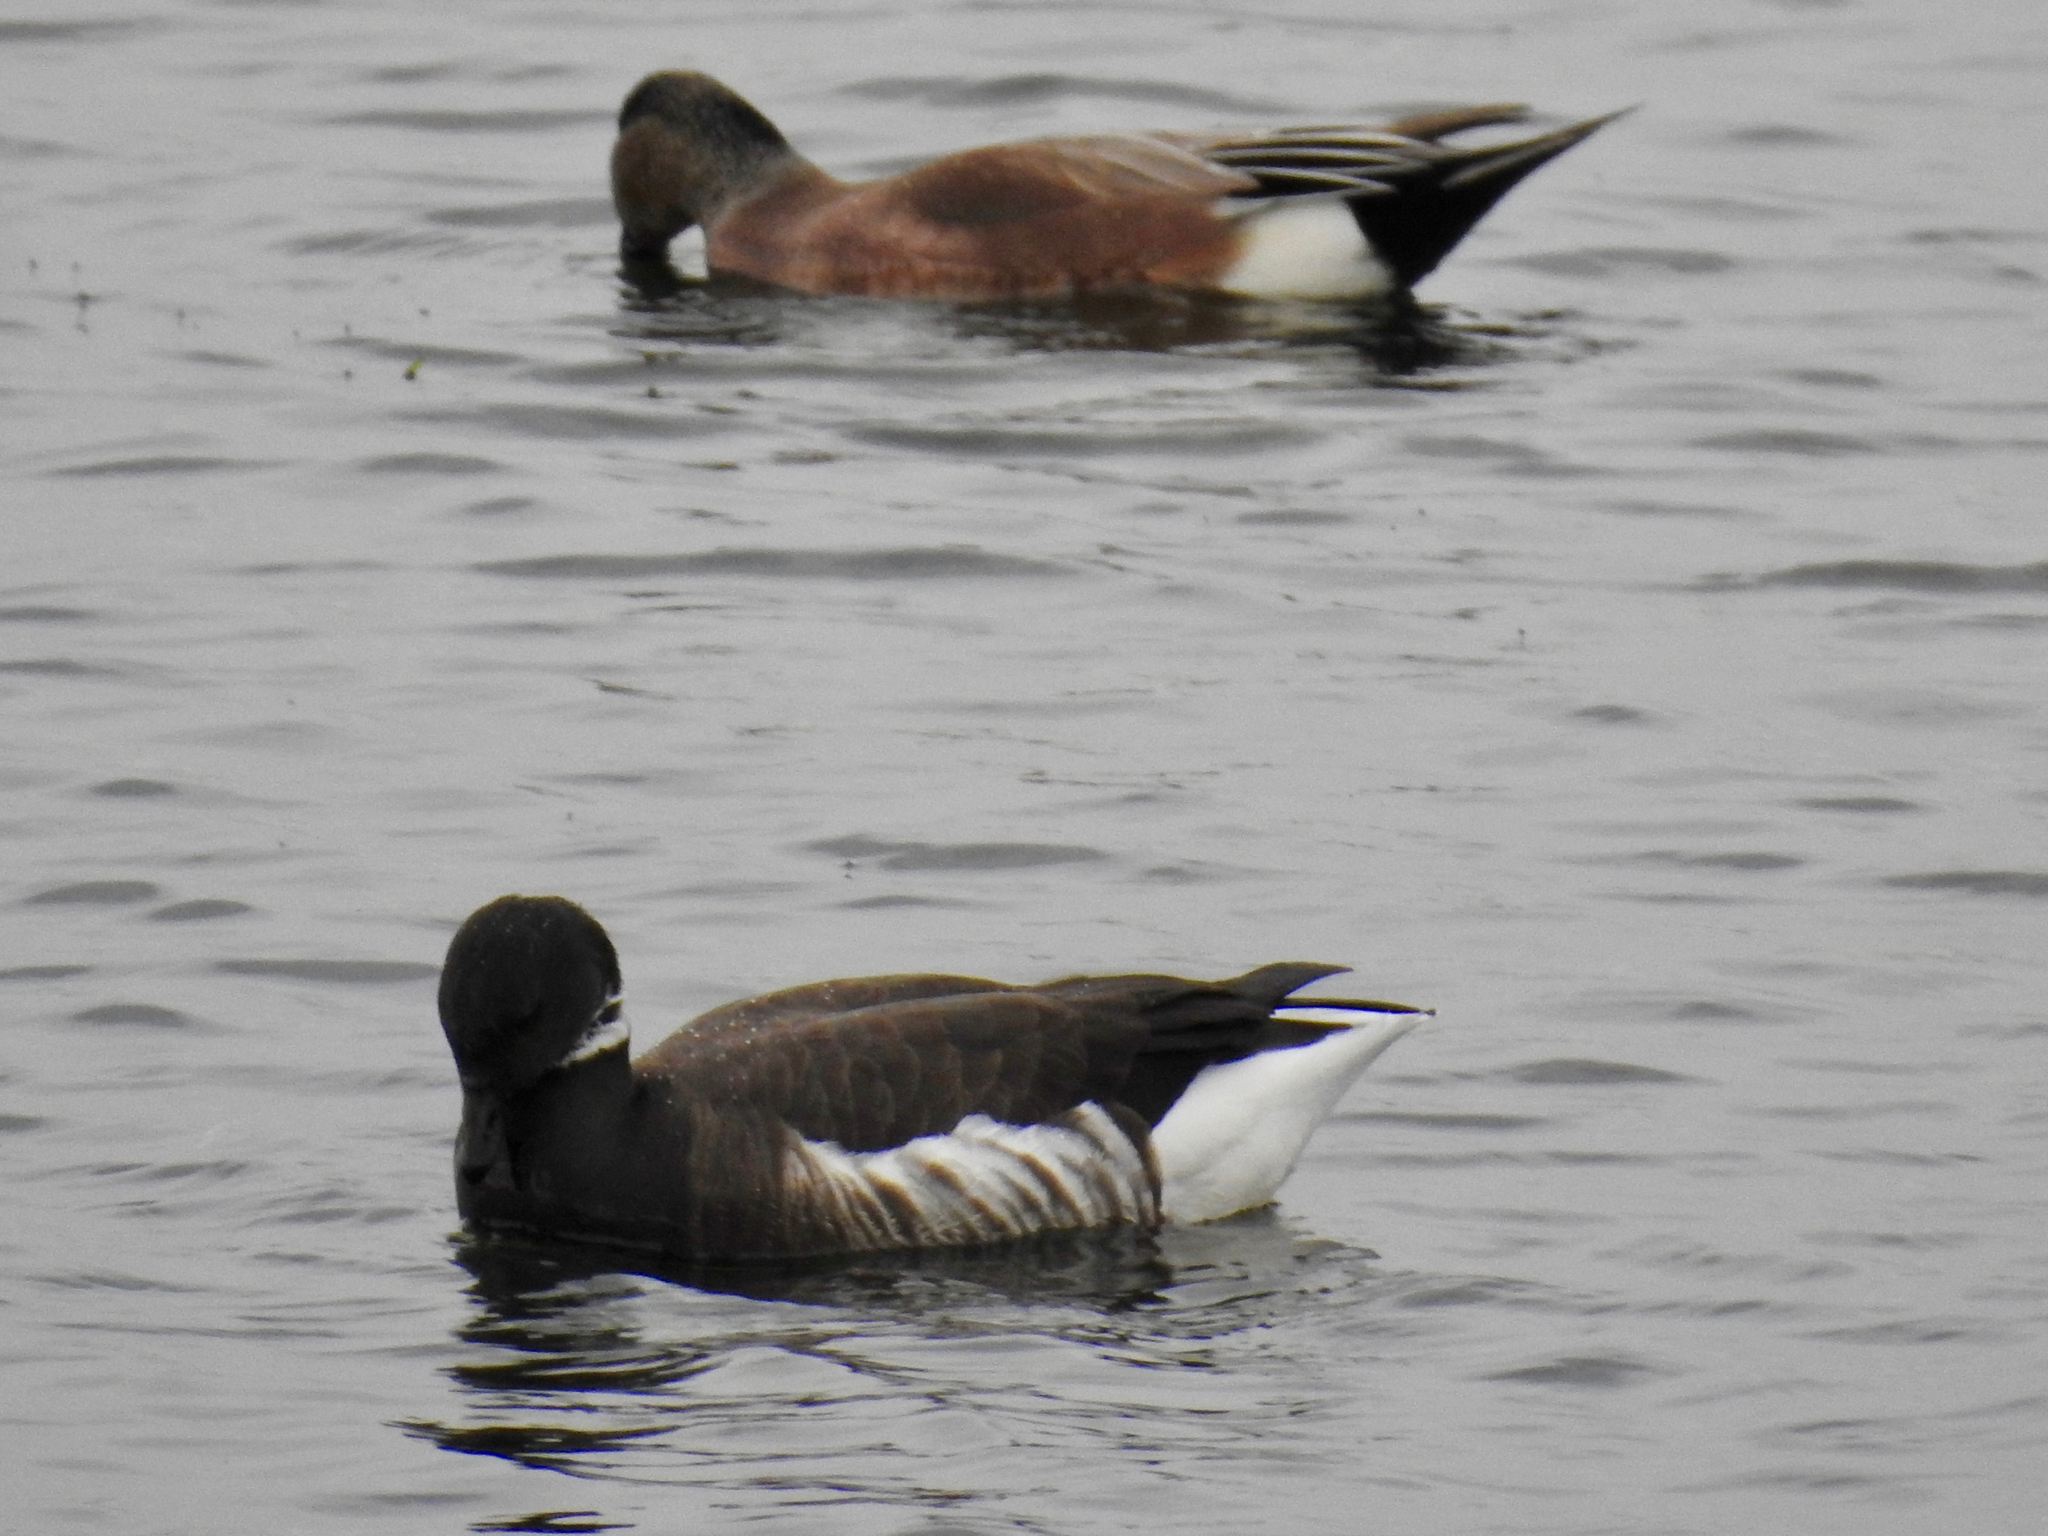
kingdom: Animalia
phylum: Chordata
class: Aves
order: Anseriformes
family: Anatidae
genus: Branta
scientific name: Branta bernicla
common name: Brant goose
